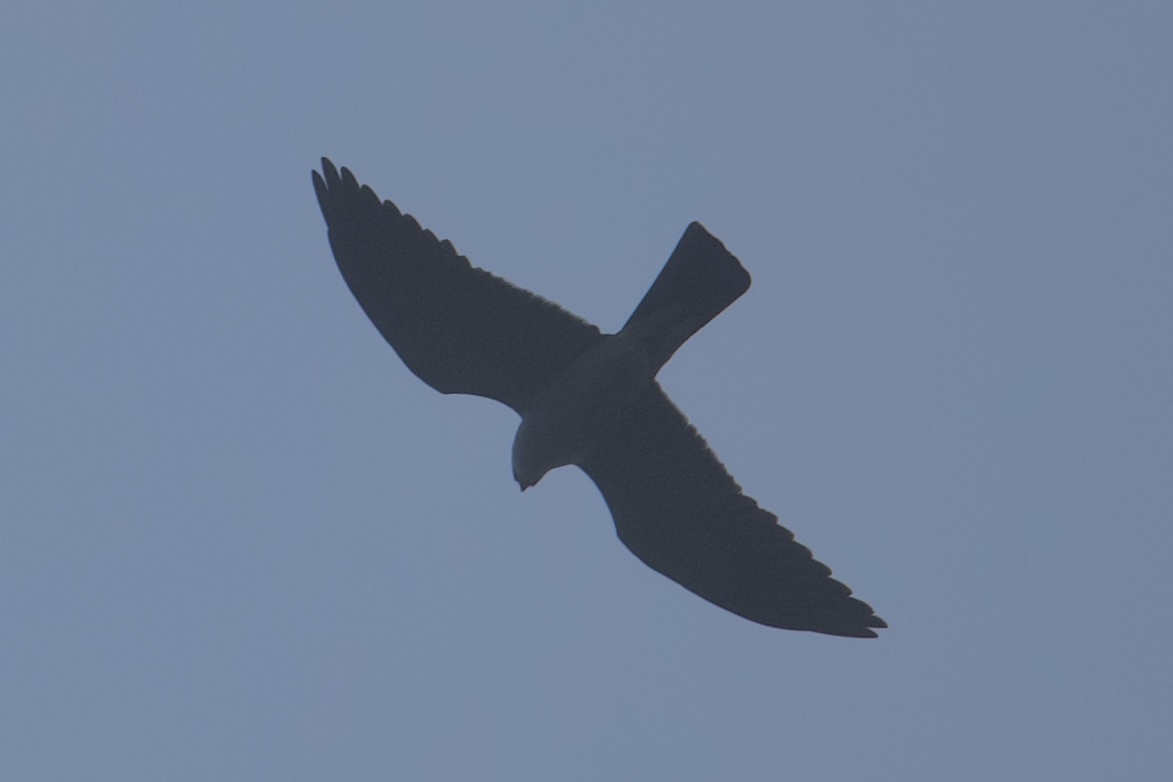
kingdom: Animalia
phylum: Chordata
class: Aves
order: Accipitriformes
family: Accipitridae
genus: Ictinia
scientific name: Ictinia mississippiensis
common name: Mississippi kite
